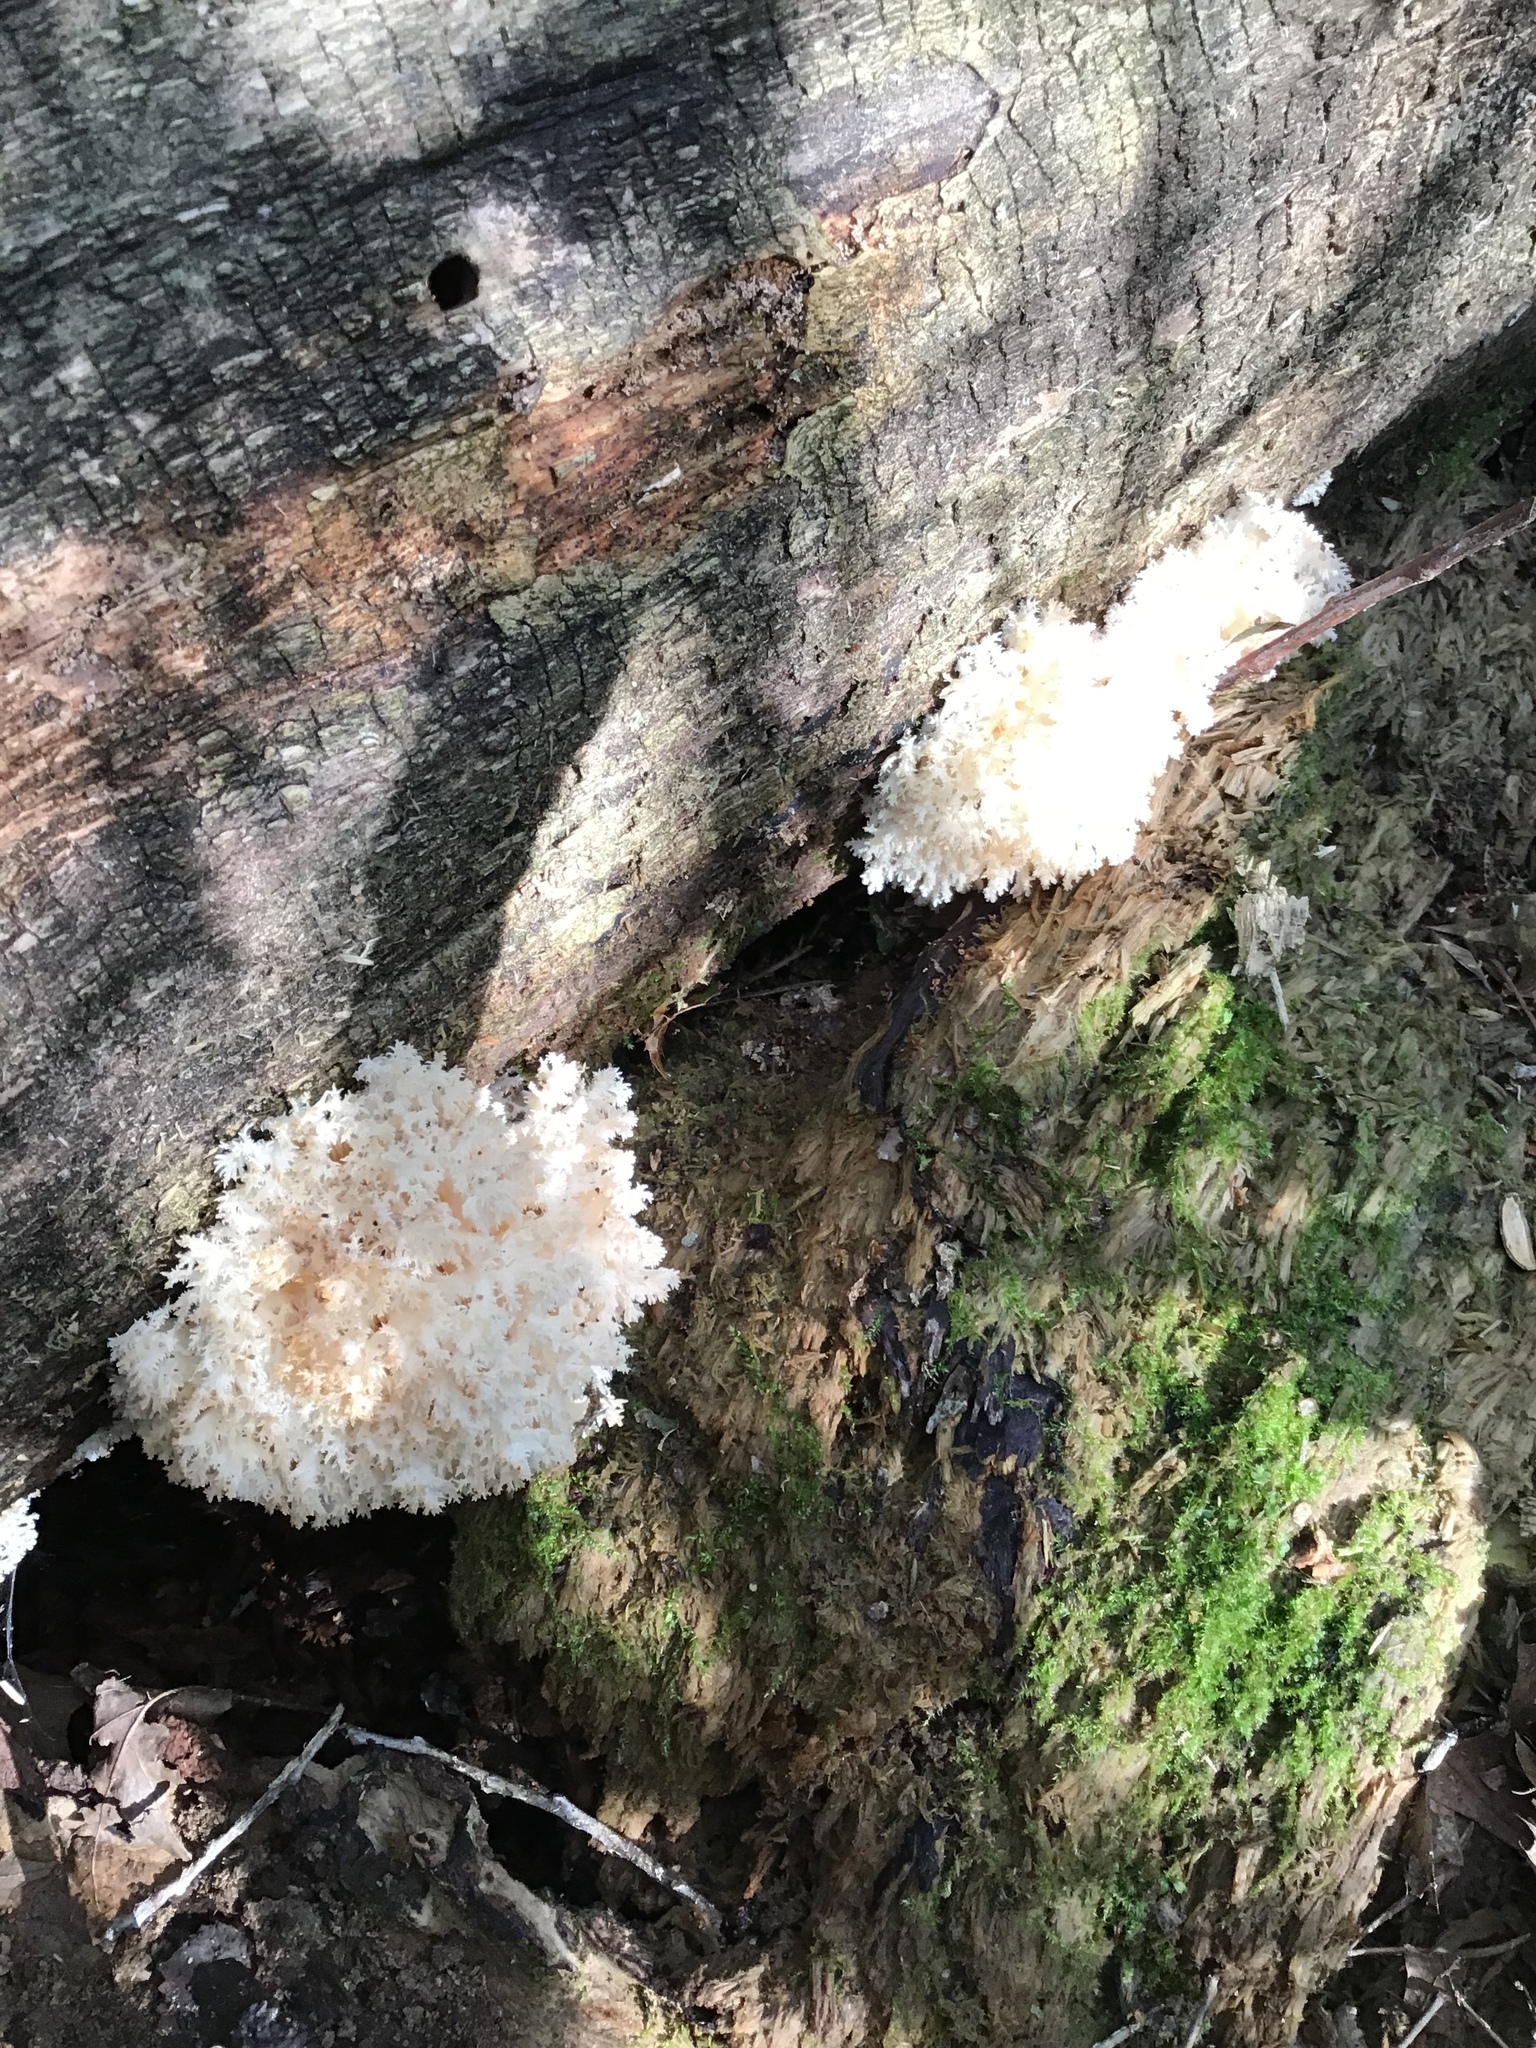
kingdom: Fungi
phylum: Basidiomycota
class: Agaricomycetes
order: Russulales
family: Hericiaceae
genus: Hericium
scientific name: Hericium coralloides
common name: Coral tooth
